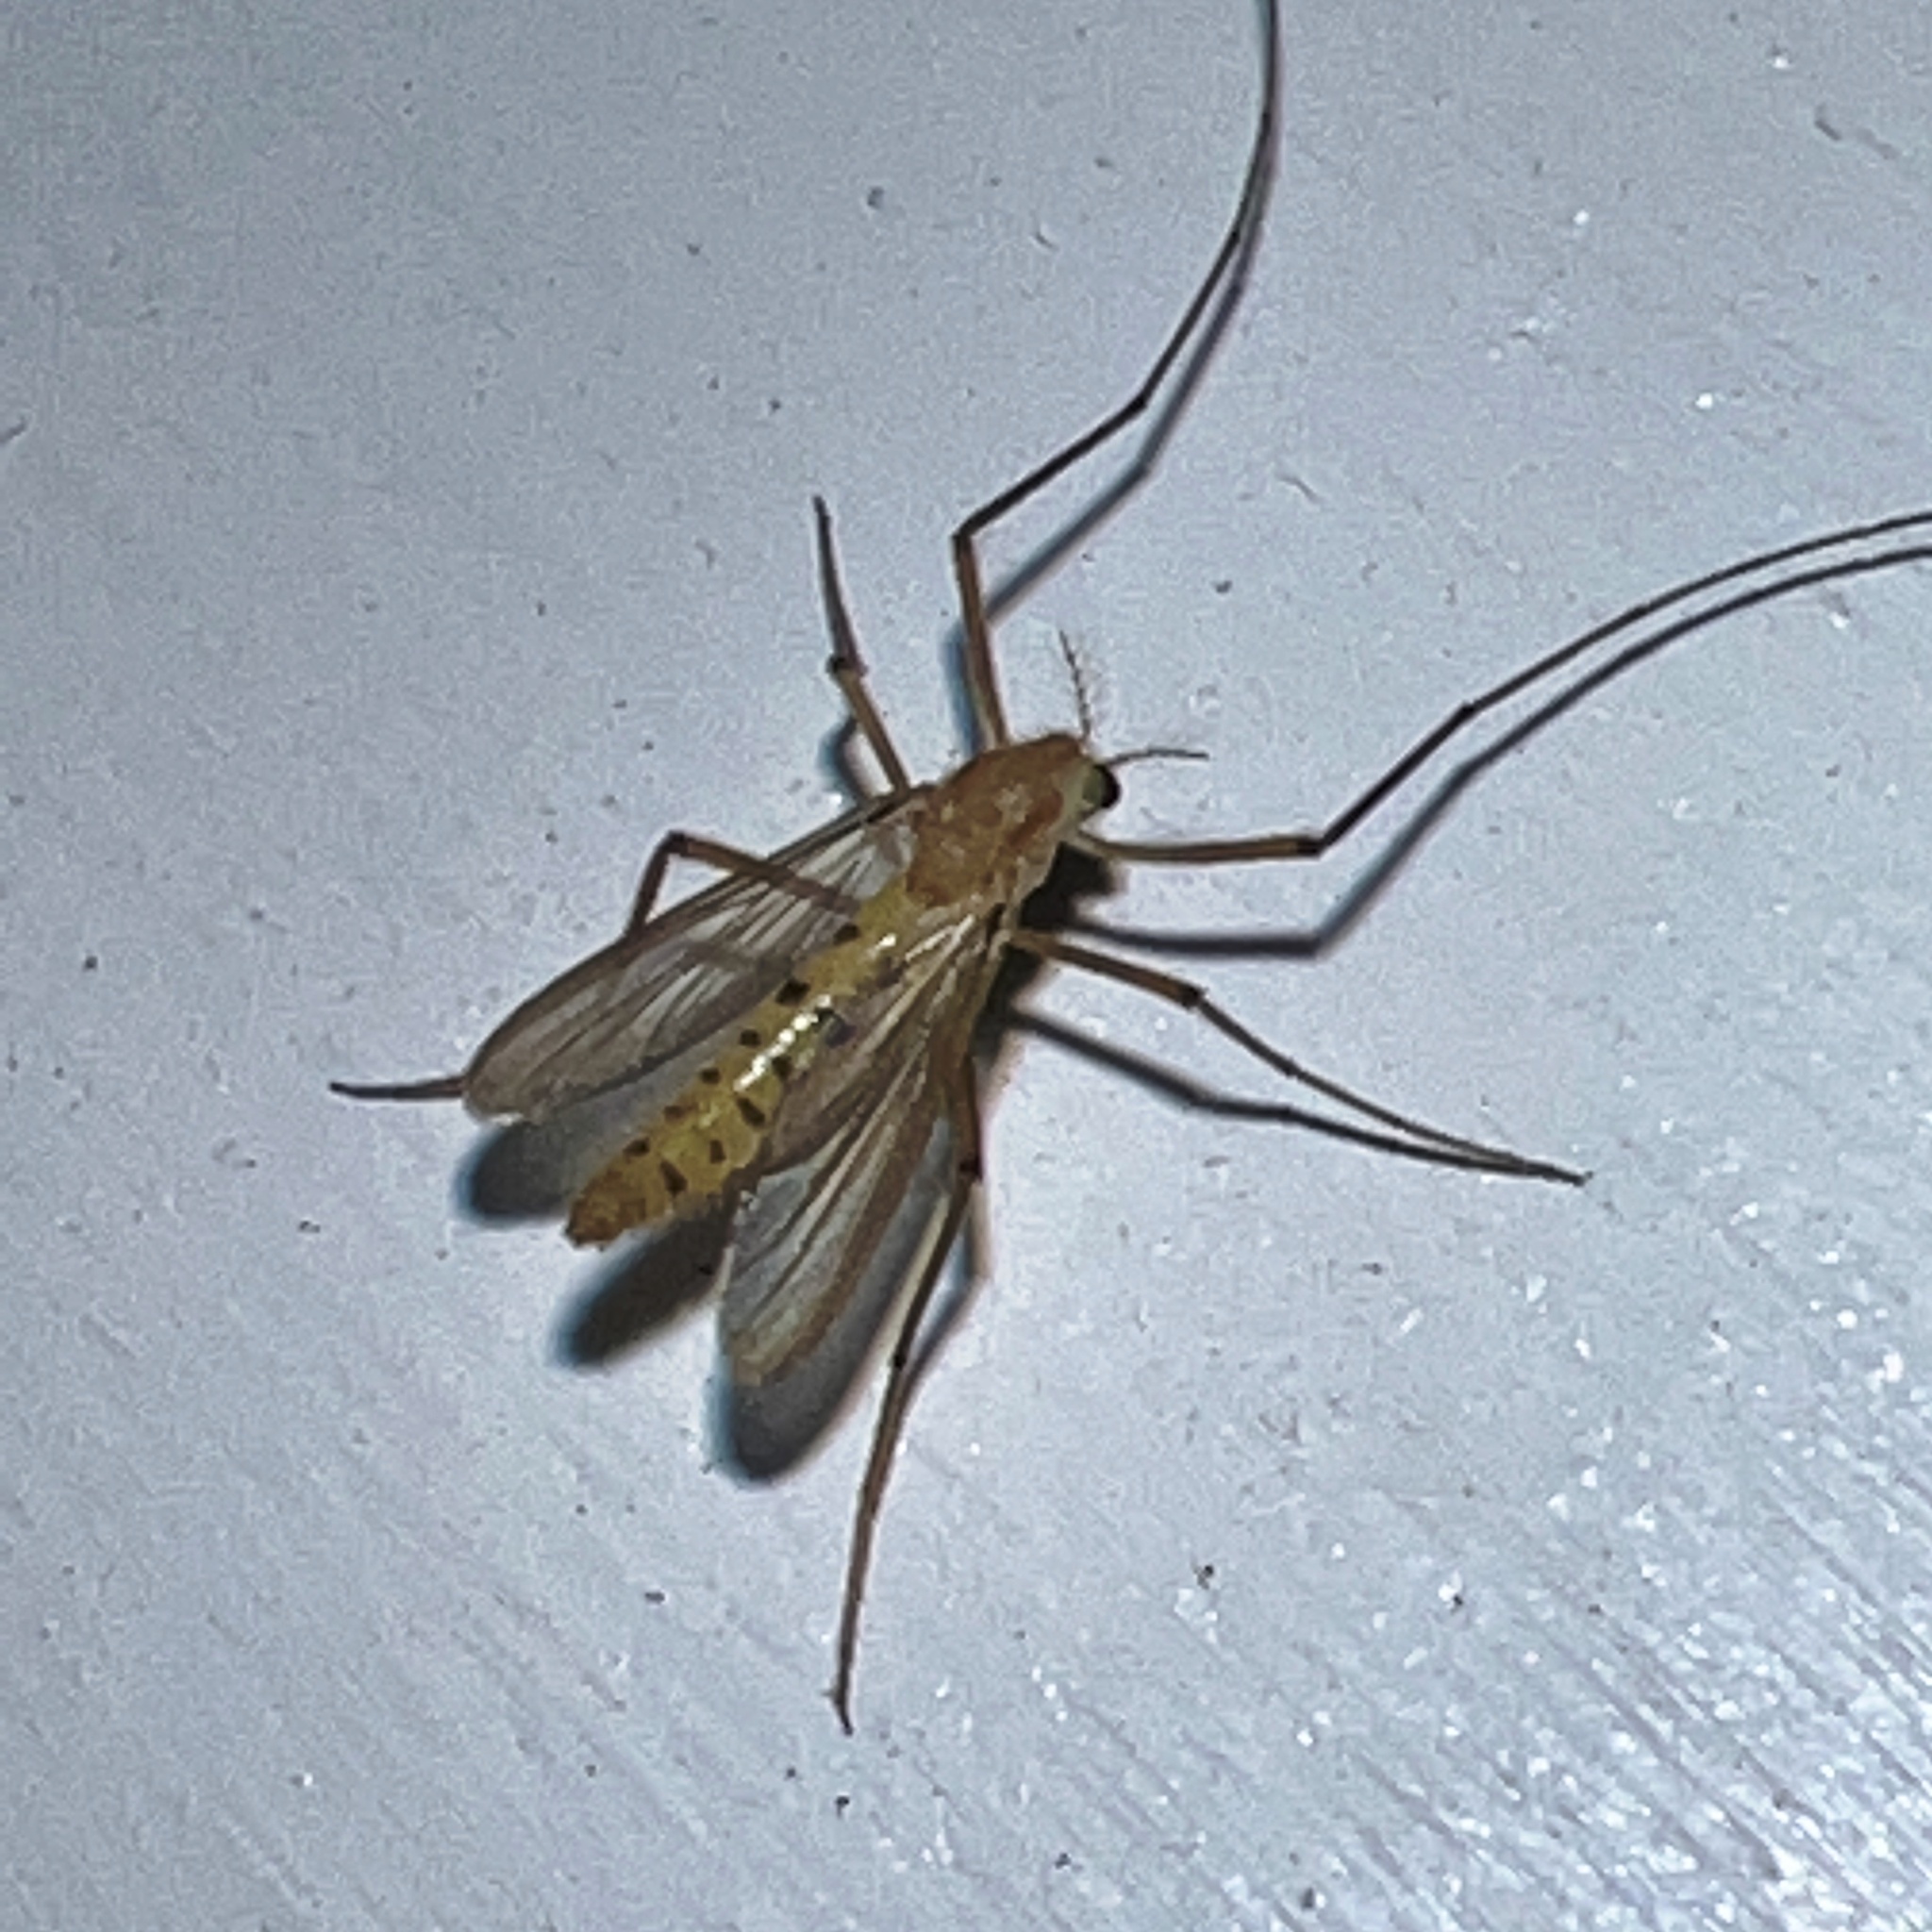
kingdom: Animalia
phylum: Arthropoda
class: Insecta
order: Diptera
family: Chironomidae
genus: Xylotopus
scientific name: Xylotopus par
